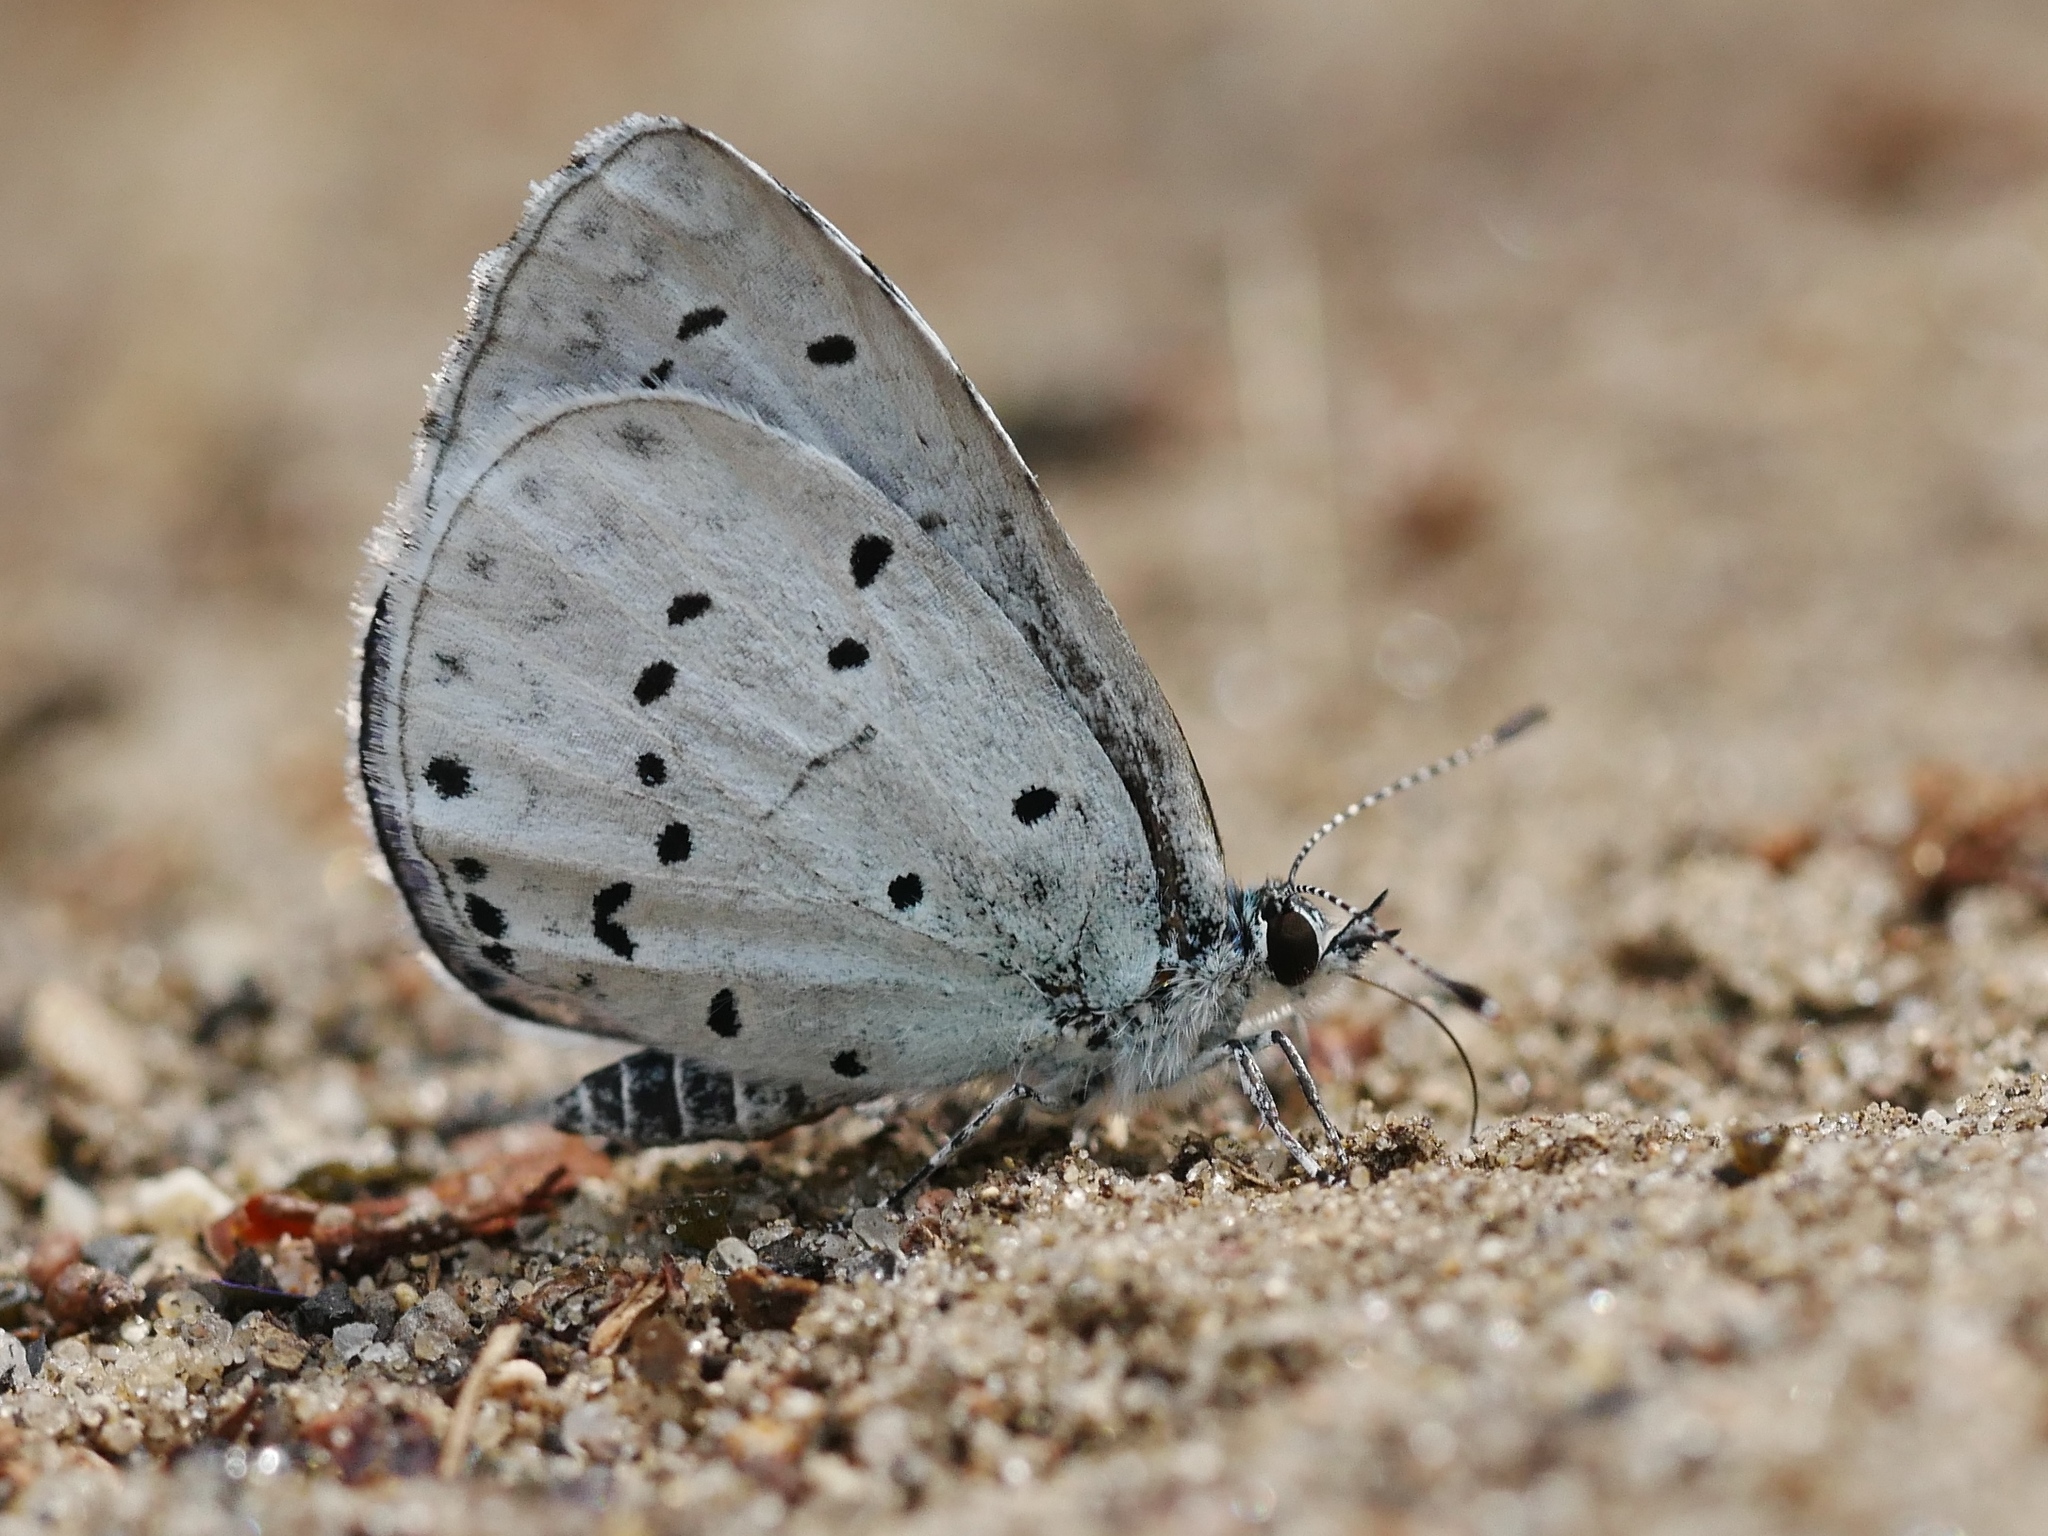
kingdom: Animalia
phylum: Arthropoda
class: Insecta
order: Lepidoptera
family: Lycaenidae
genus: Celastrina
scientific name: Celastrina argiolus
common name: Holly blue
